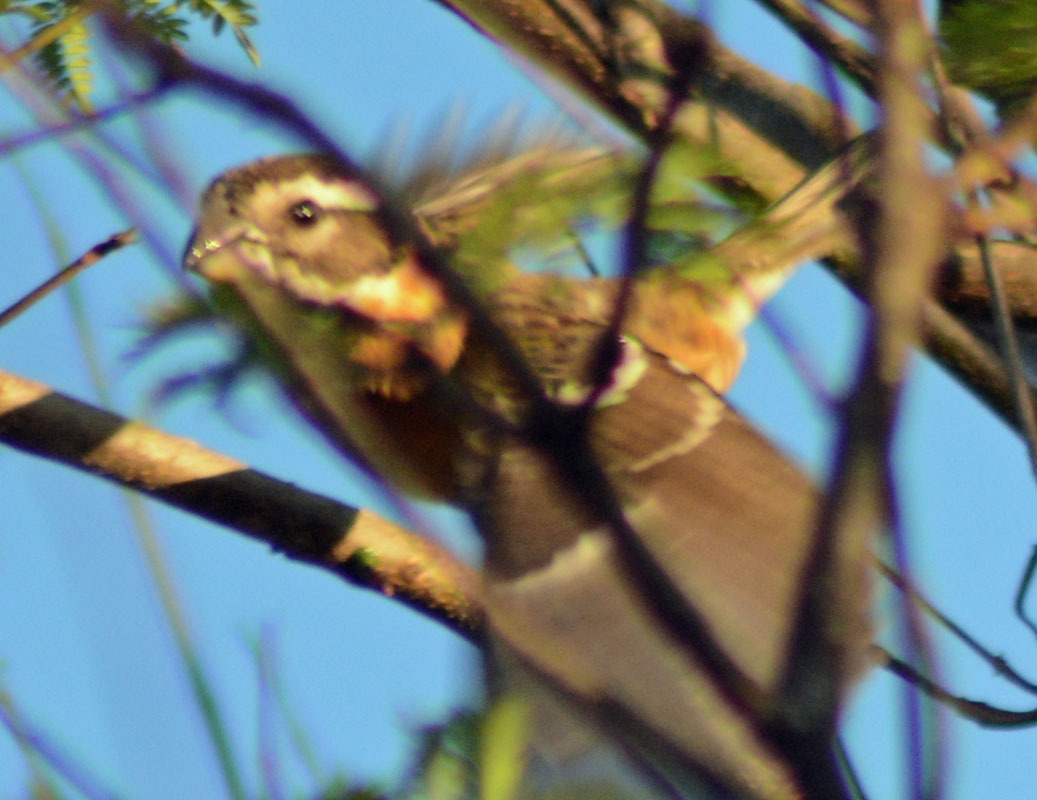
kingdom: Animalia
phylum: Chordata
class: Aves
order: Passeriformes
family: Cardinalidae
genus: Pheucticus
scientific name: Pheucticus melanocephalus
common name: Black-headed grosbeak
